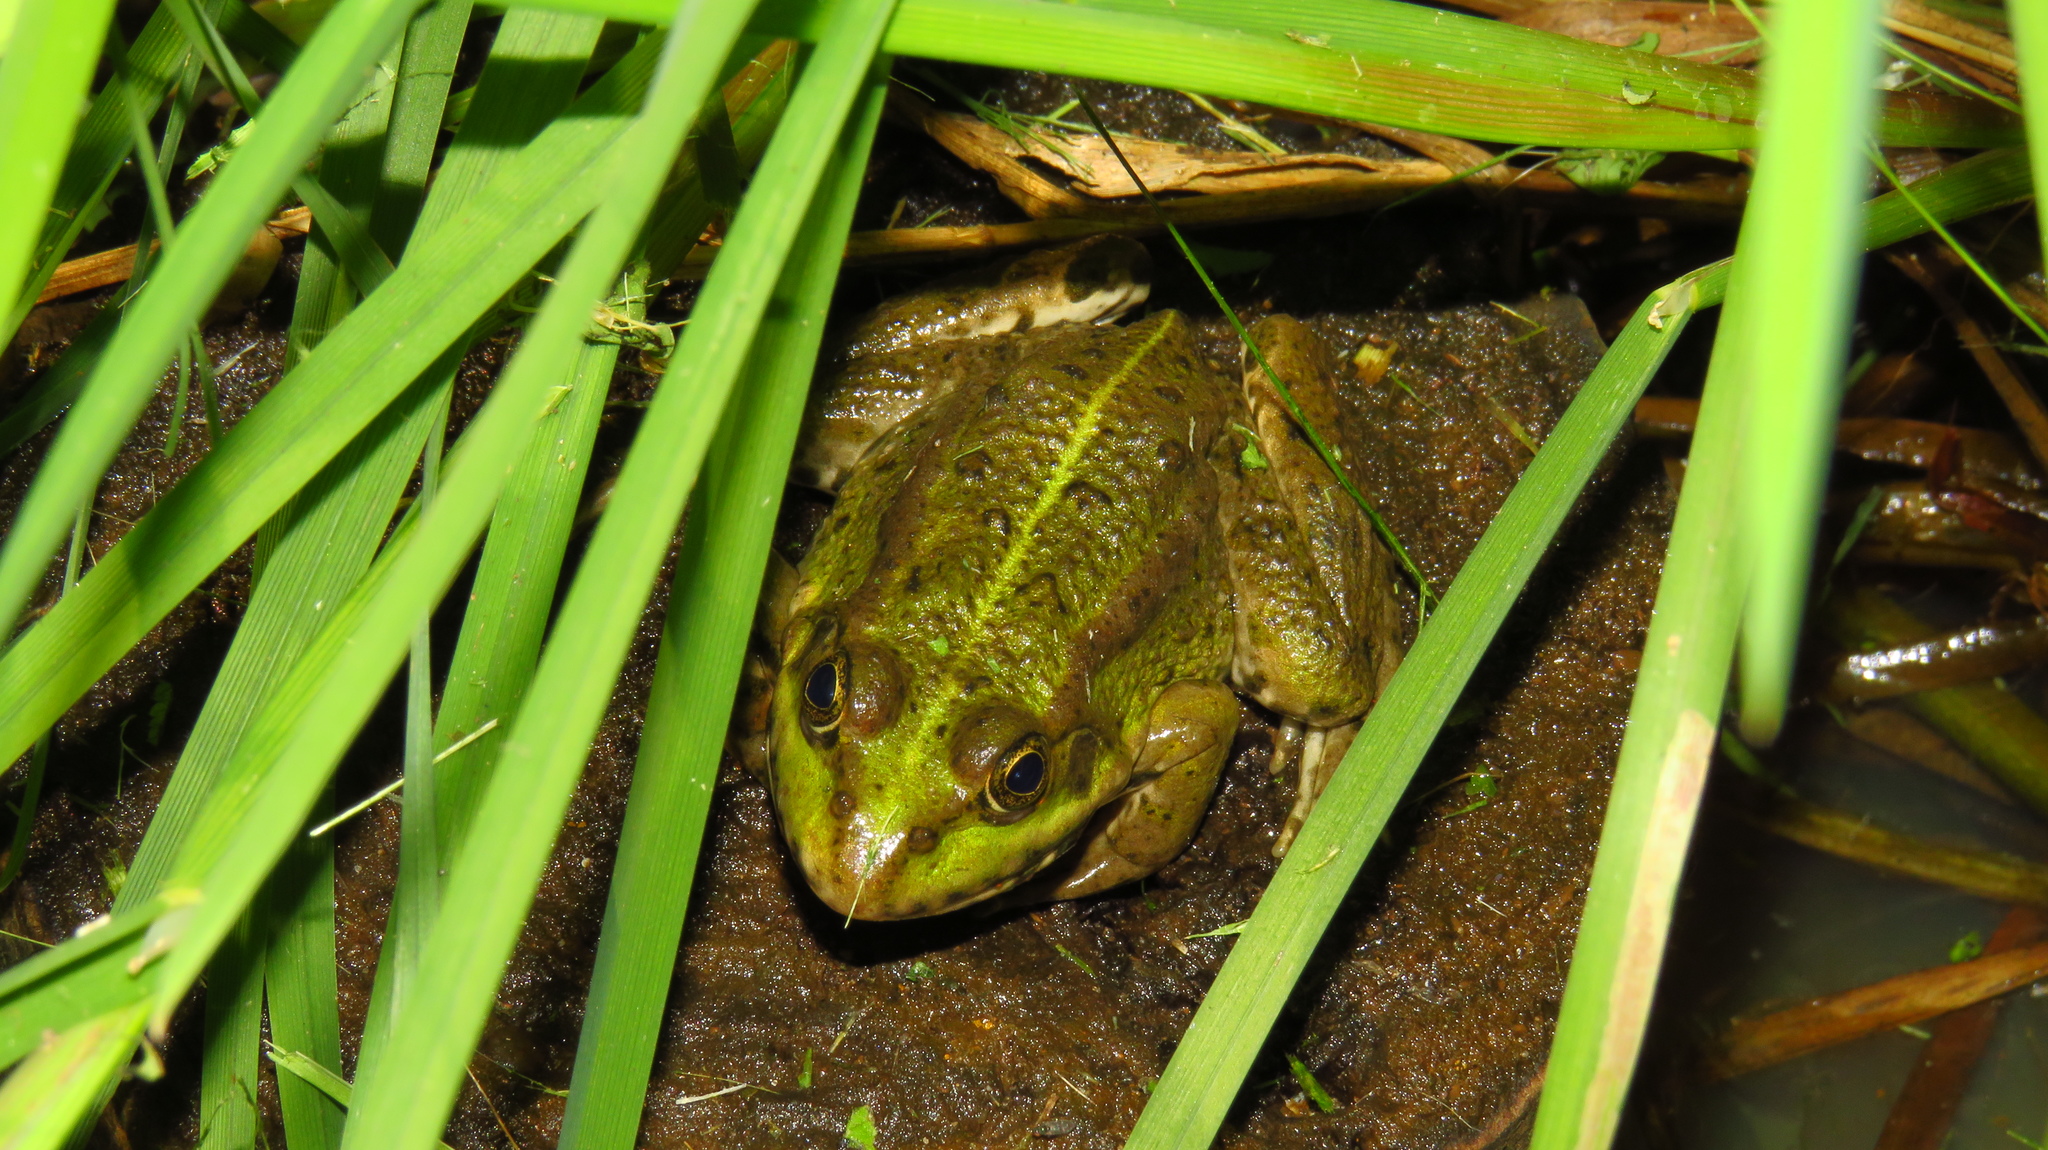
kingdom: Animalia
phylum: Chordata
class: Amphibia
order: Anura
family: Ranidae
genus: Pelophylax
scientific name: Pelophylax ridibundus
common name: Marsh frog
